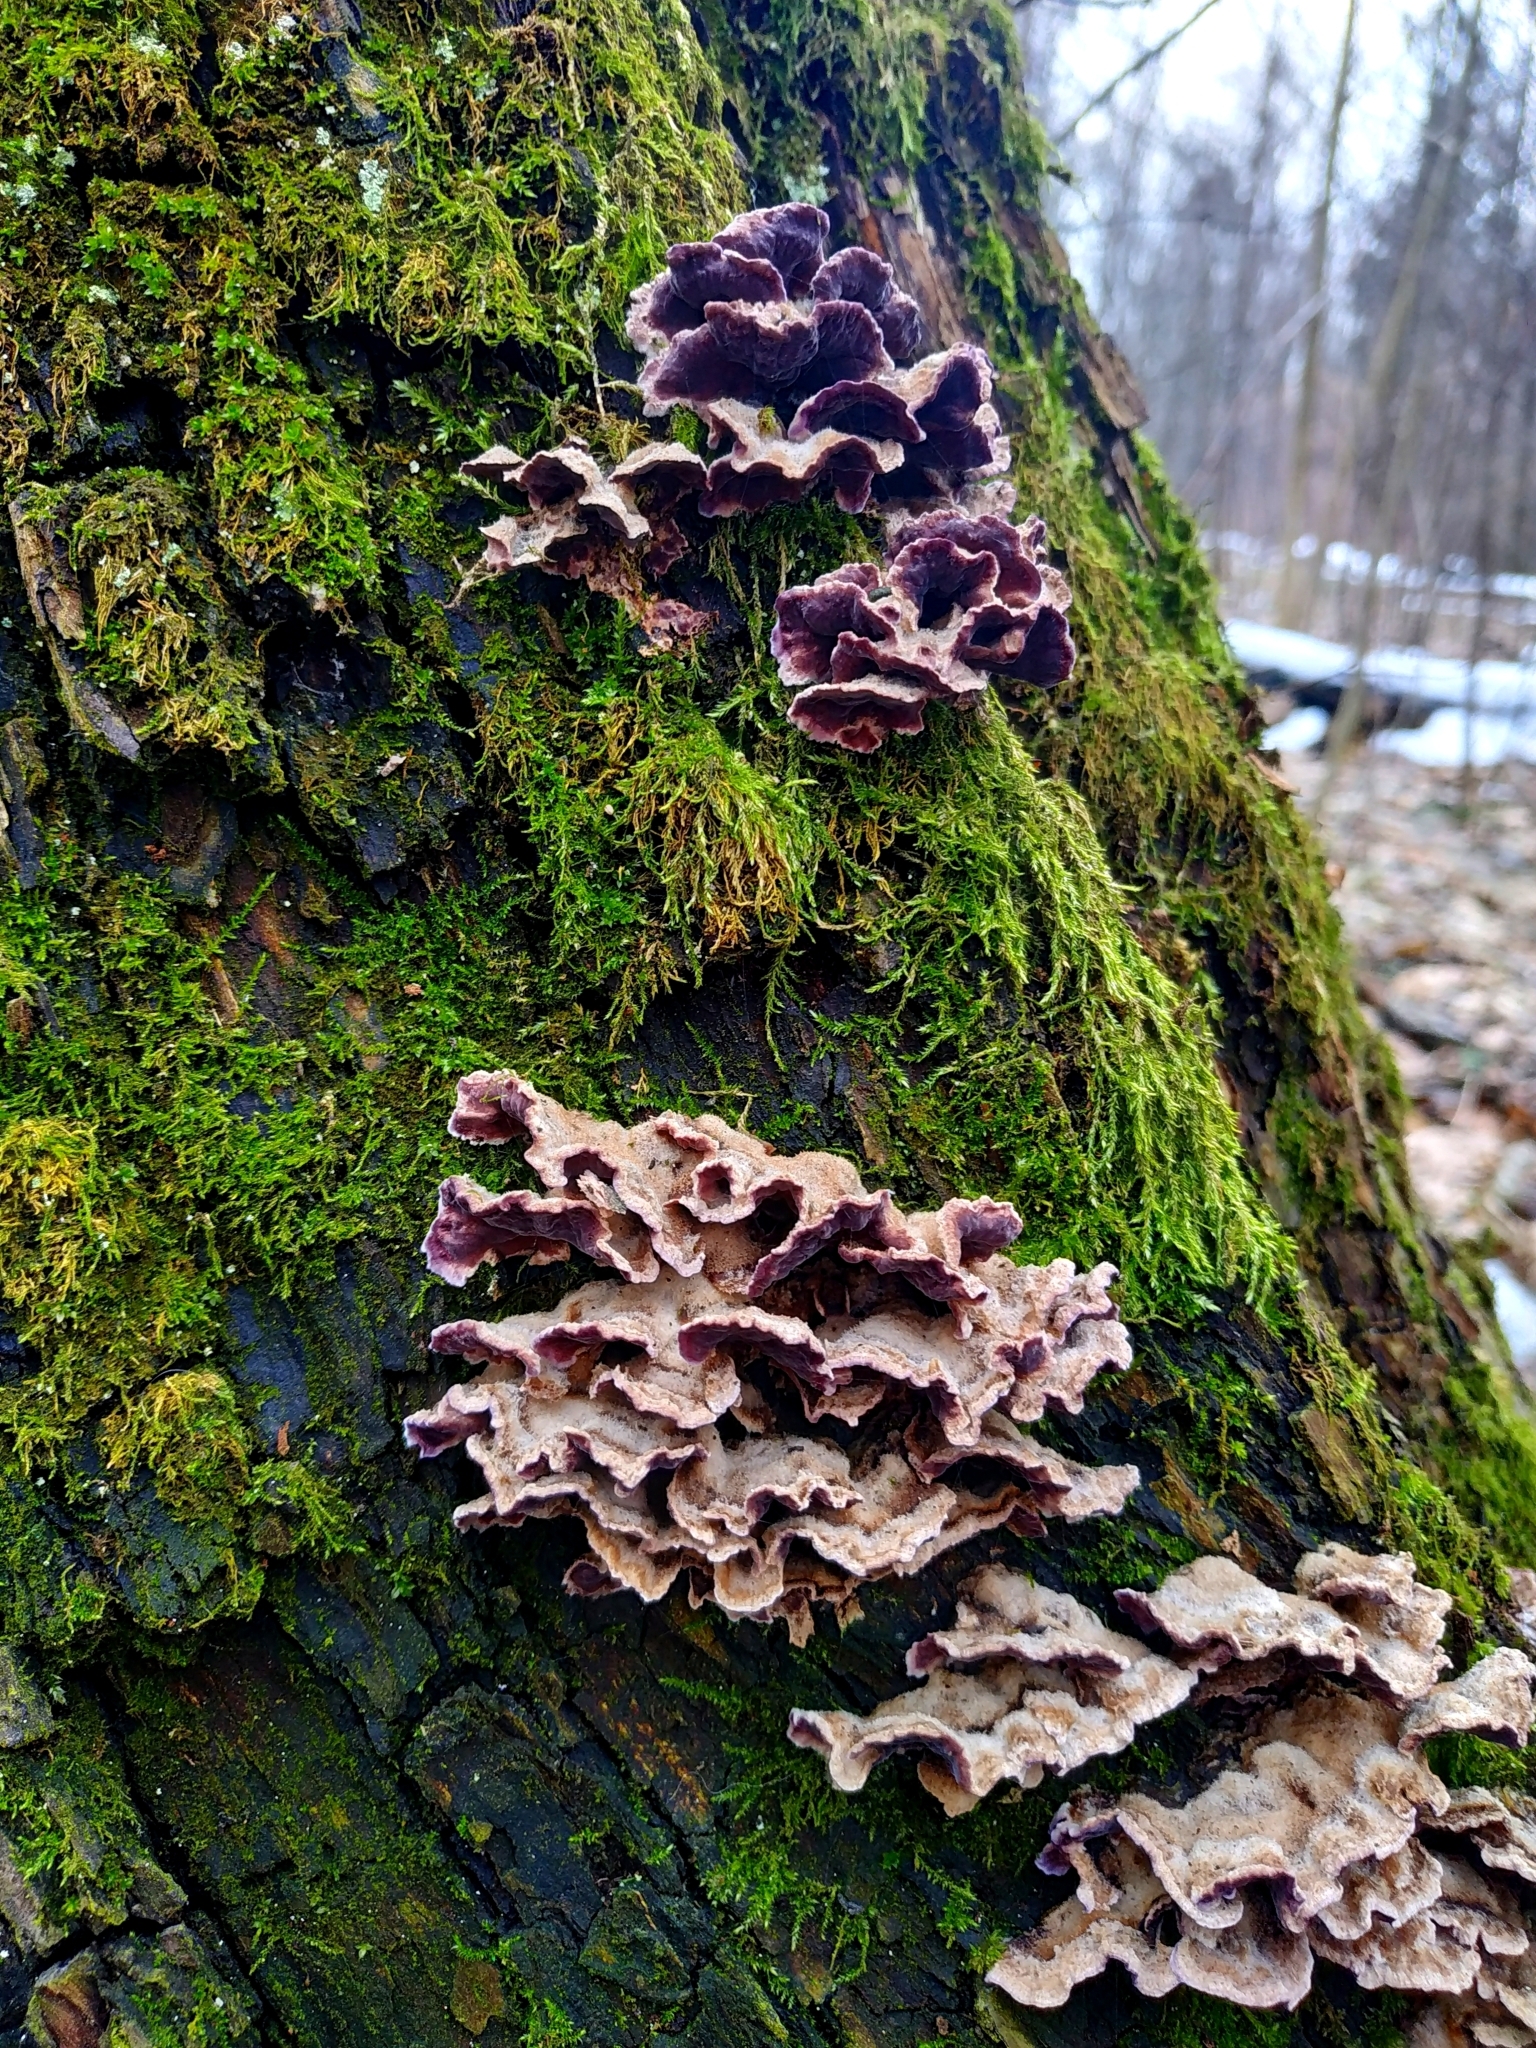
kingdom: Fungi
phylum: Basidiomycota
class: Agaricomycetes
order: Agaricales
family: Cyphellaceae
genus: Chondrostereum
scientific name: Chondrostereum purpureum
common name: Silver leaf disease
